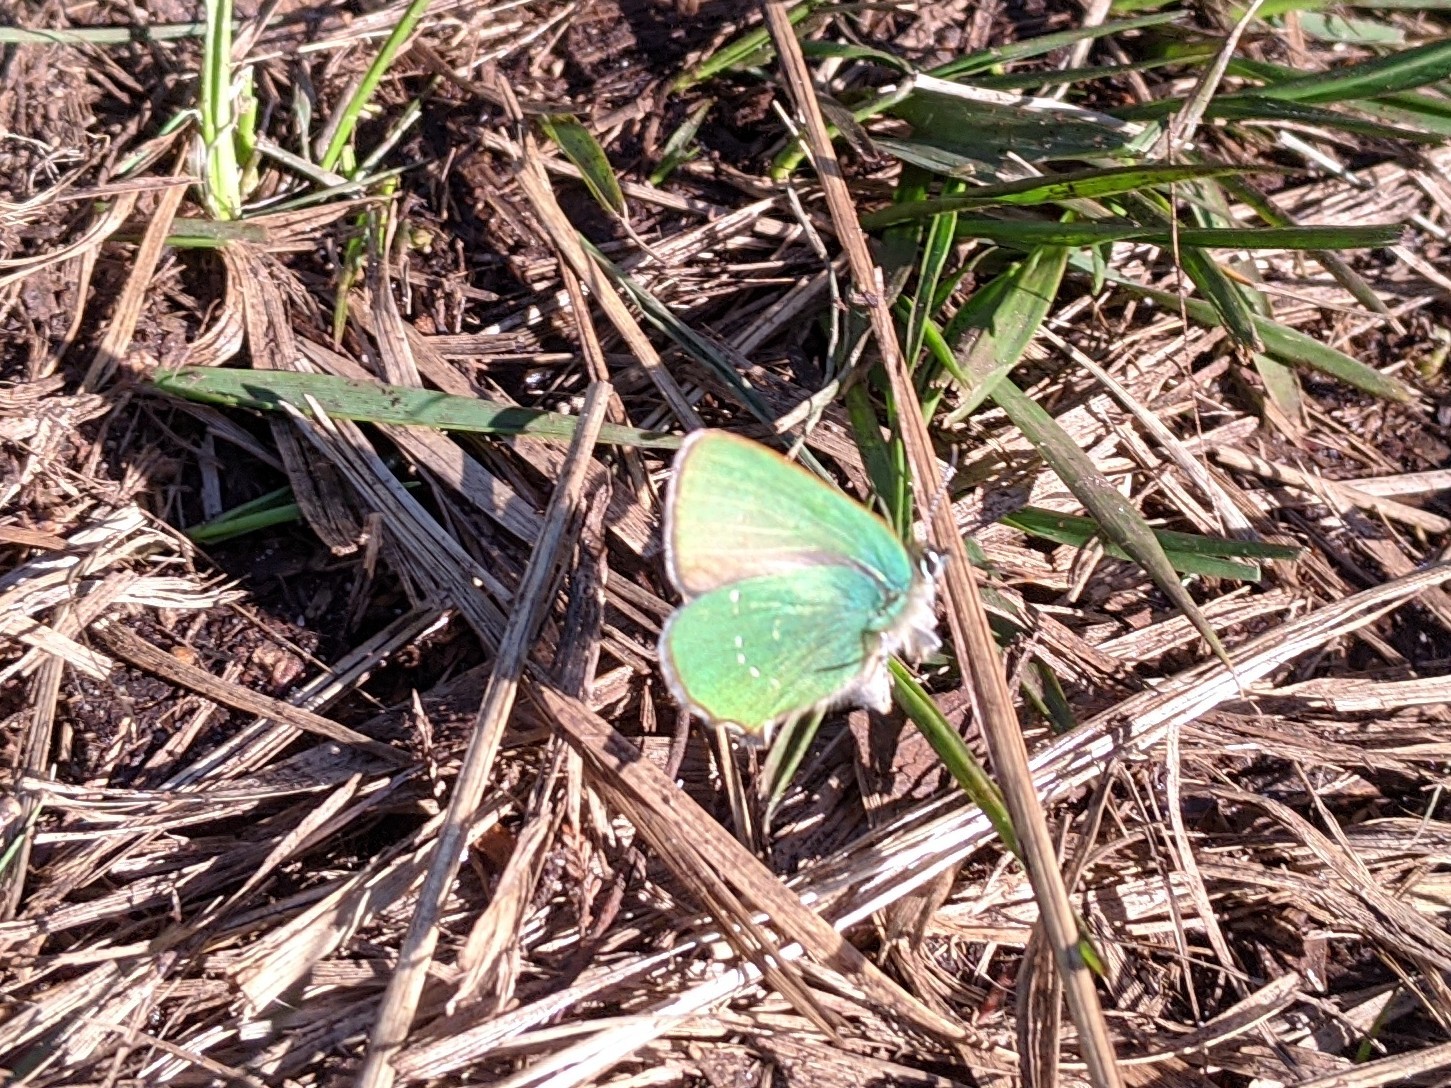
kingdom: Animalia
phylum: Arthropoda
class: Insecta
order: Lepidoptera
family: Lycaenidae
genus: Callophrys
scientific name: Callophrys rubi
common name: Green hairstreak
